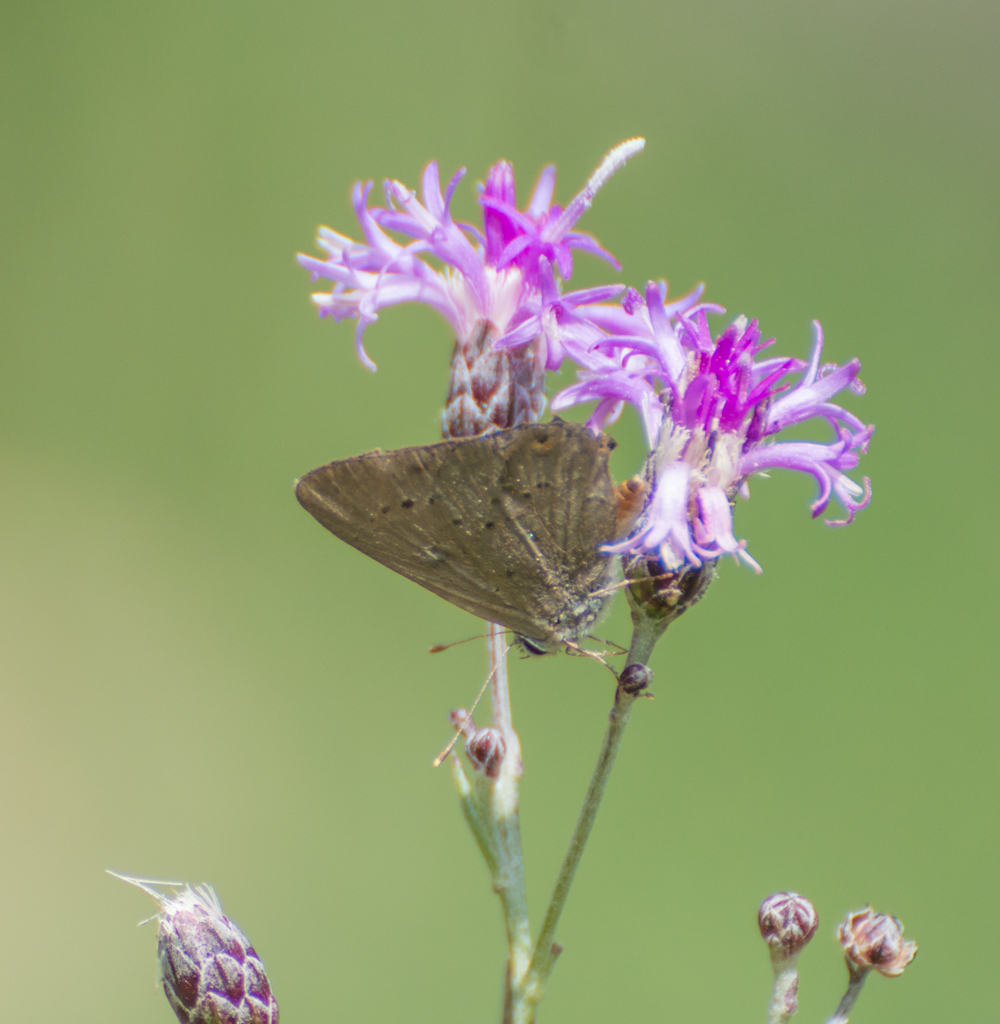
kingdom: Animalia
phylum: Arthropoda
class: Insecta
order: Lepidoptera
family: Lycaenidae
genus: Strymon
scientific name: Strymon eurytulus
